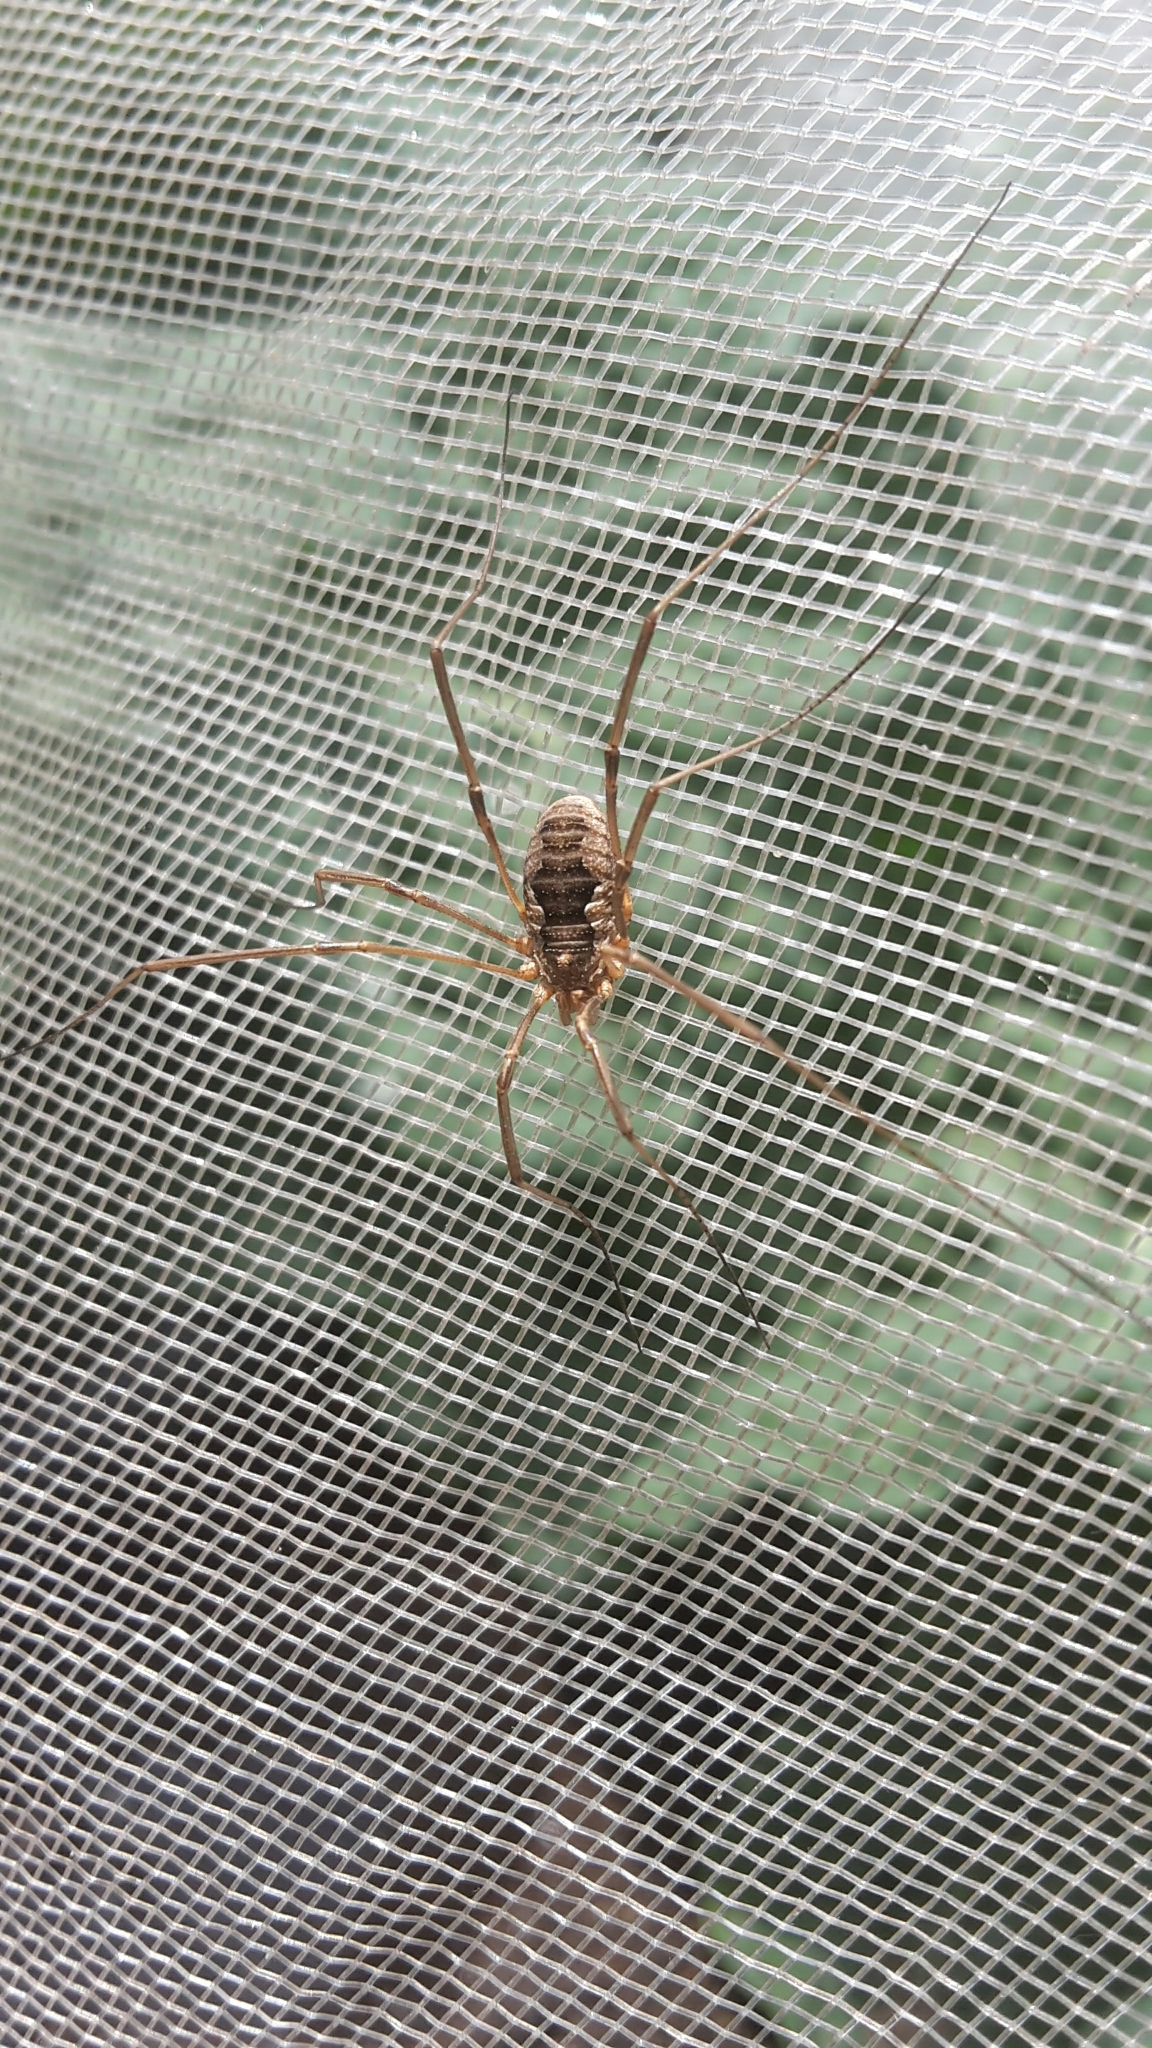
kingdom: Animalia
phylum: Arthropoda
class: Arachnida
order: Opiliones
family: Phalangiidae
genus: Phalangium
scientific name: Phalangium opilio
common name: Daddy longleg
